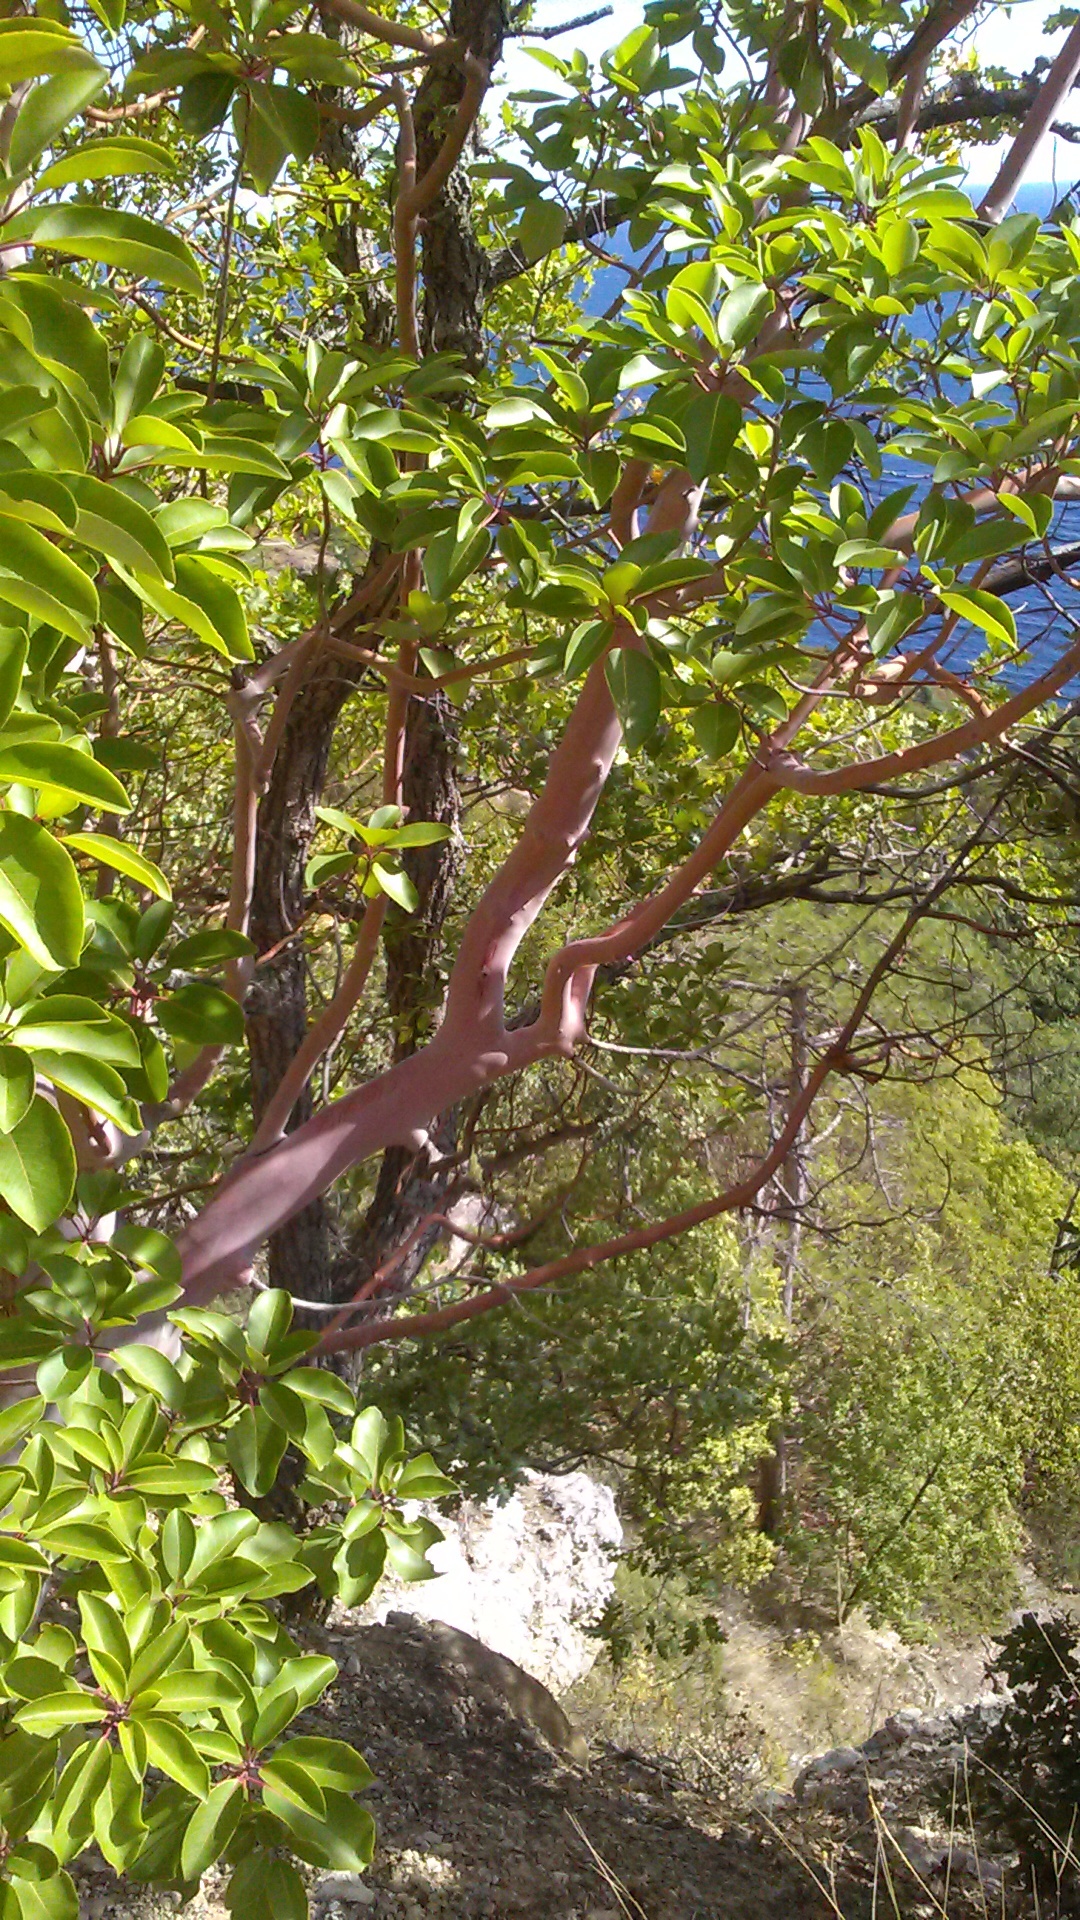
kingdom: Plantae
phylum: Tracheophyta
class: Magnoliopsida
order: Ericales
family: Ericaceae
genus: Arbutus
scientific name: Arbutus andrachne
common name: Greek strawberry tree
